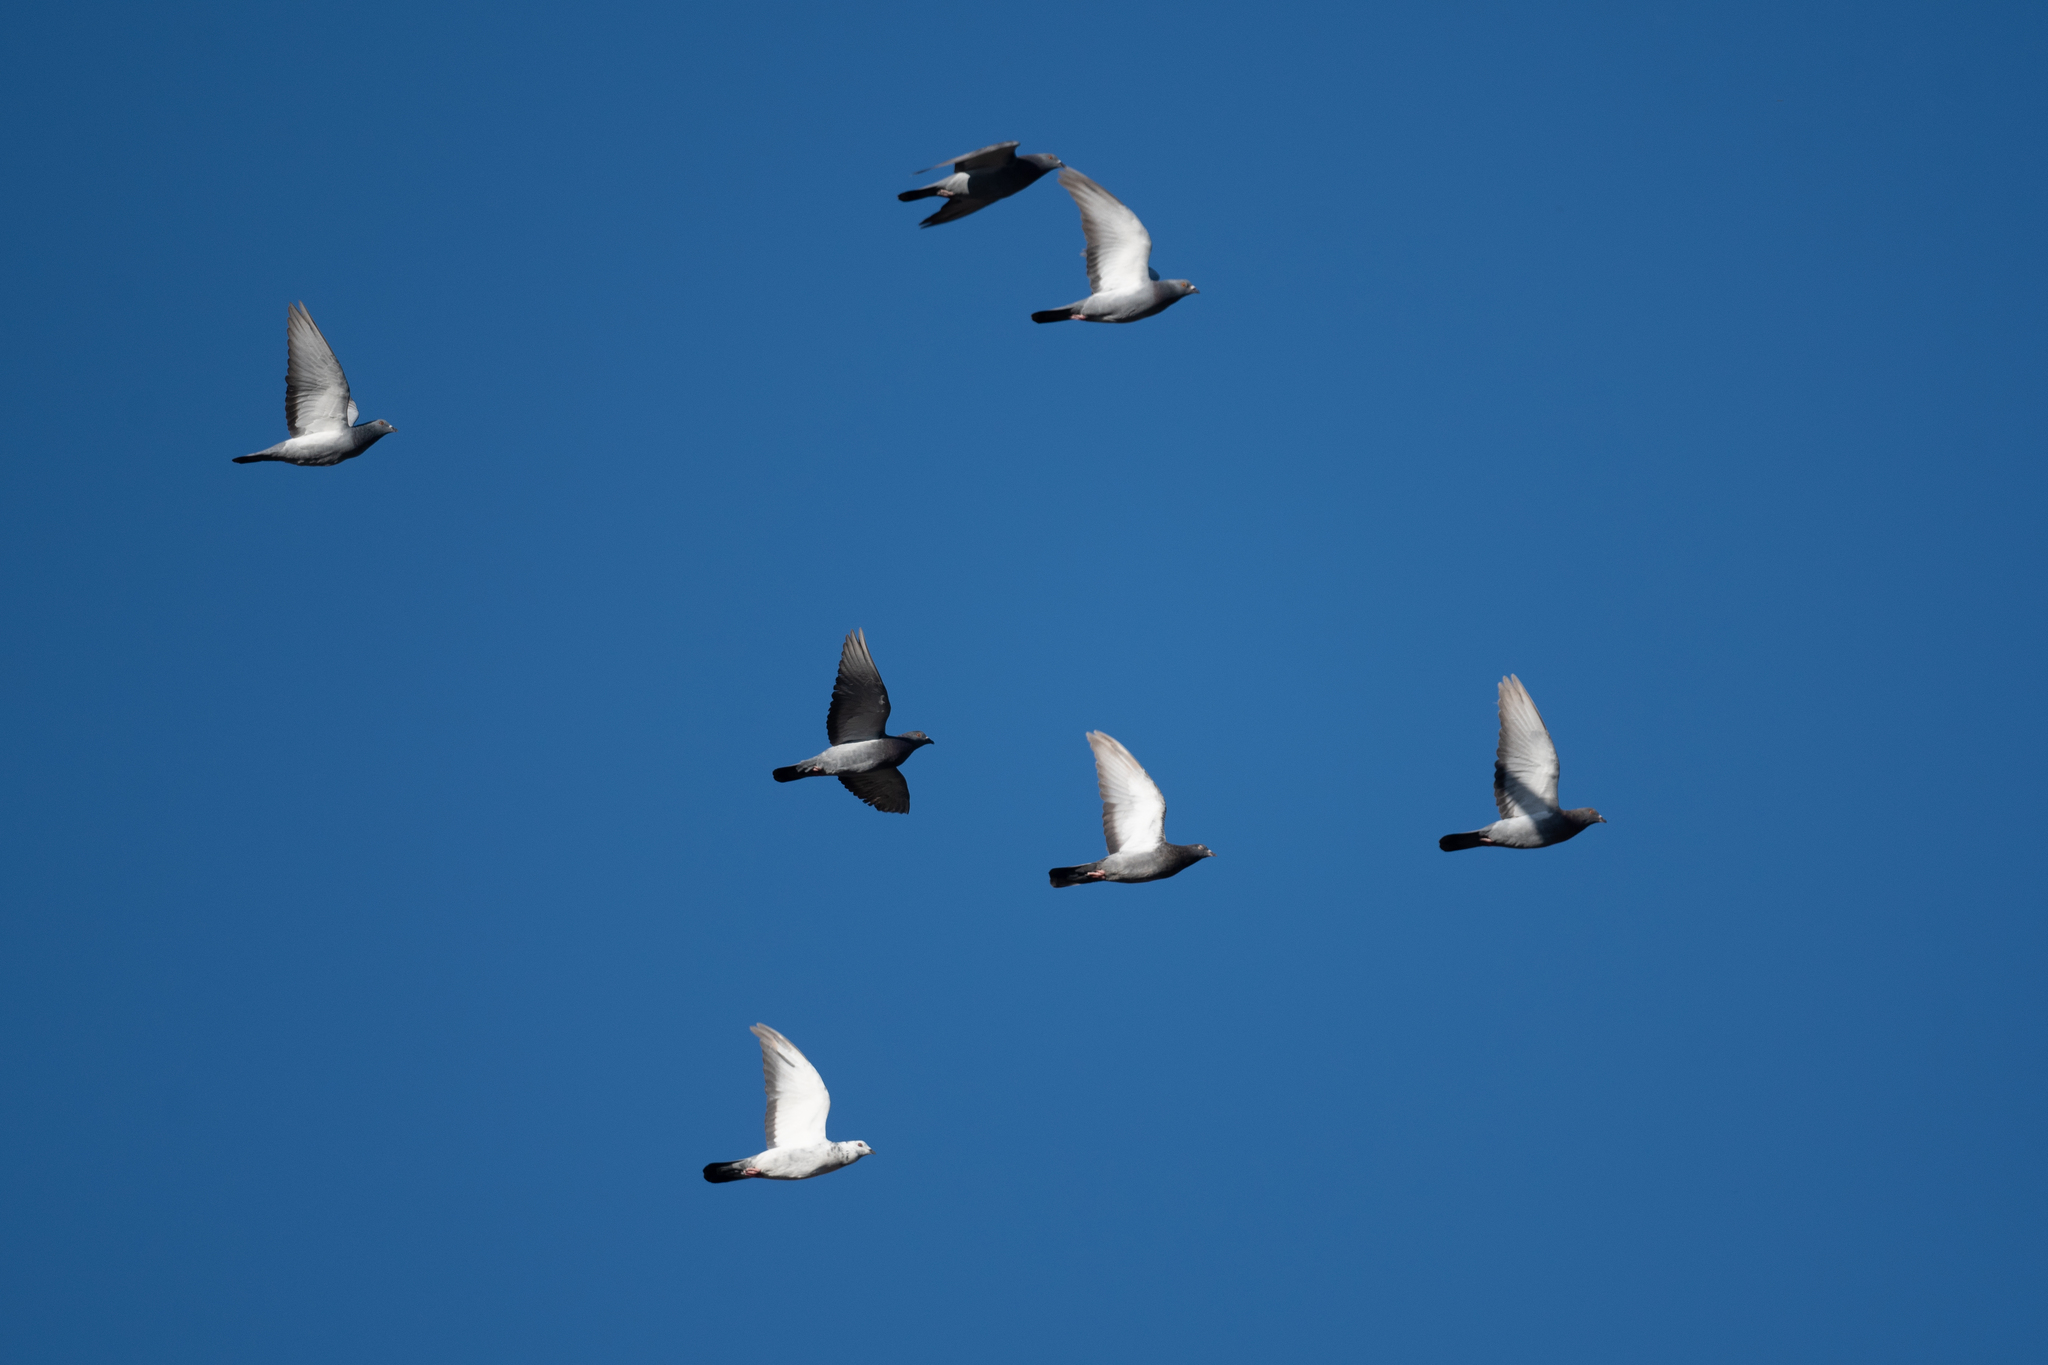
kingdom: Animalia
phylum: Chordata
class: Aves
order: Columbiformes
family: Columbidae
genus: Columba
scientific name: Columba livia
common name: Rock pigeon
